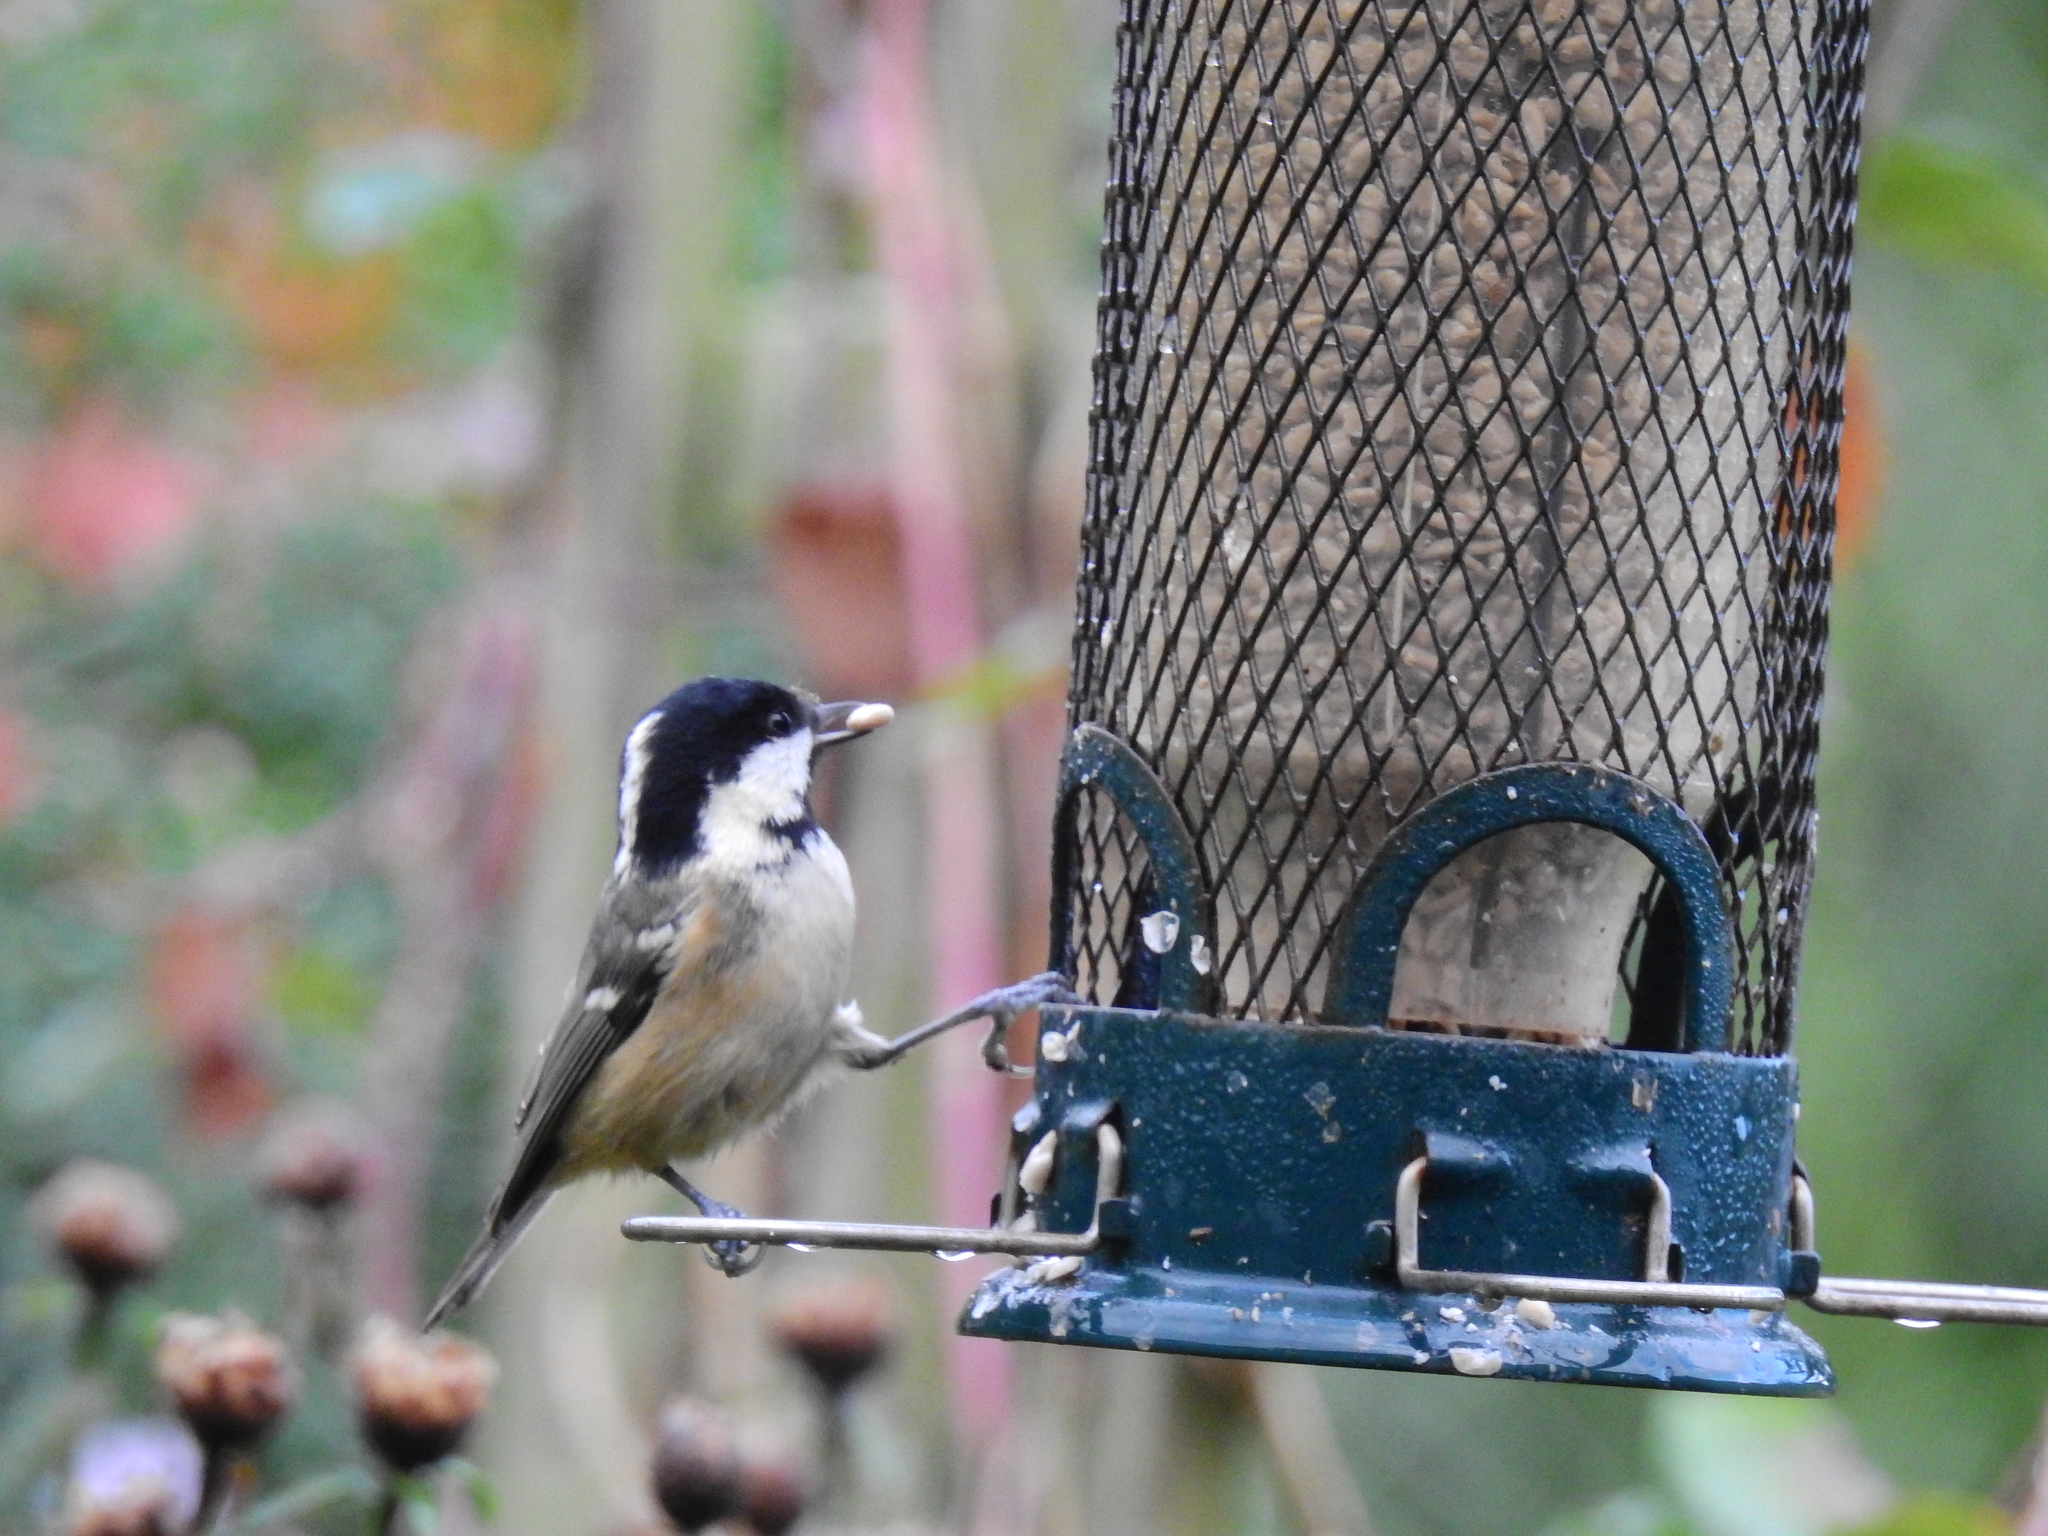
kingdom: Animalia
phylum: Chordata
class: Aves
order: Passeriformes
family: Paridae
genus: Periparus
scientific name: Periparus ater
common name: Coal tit
